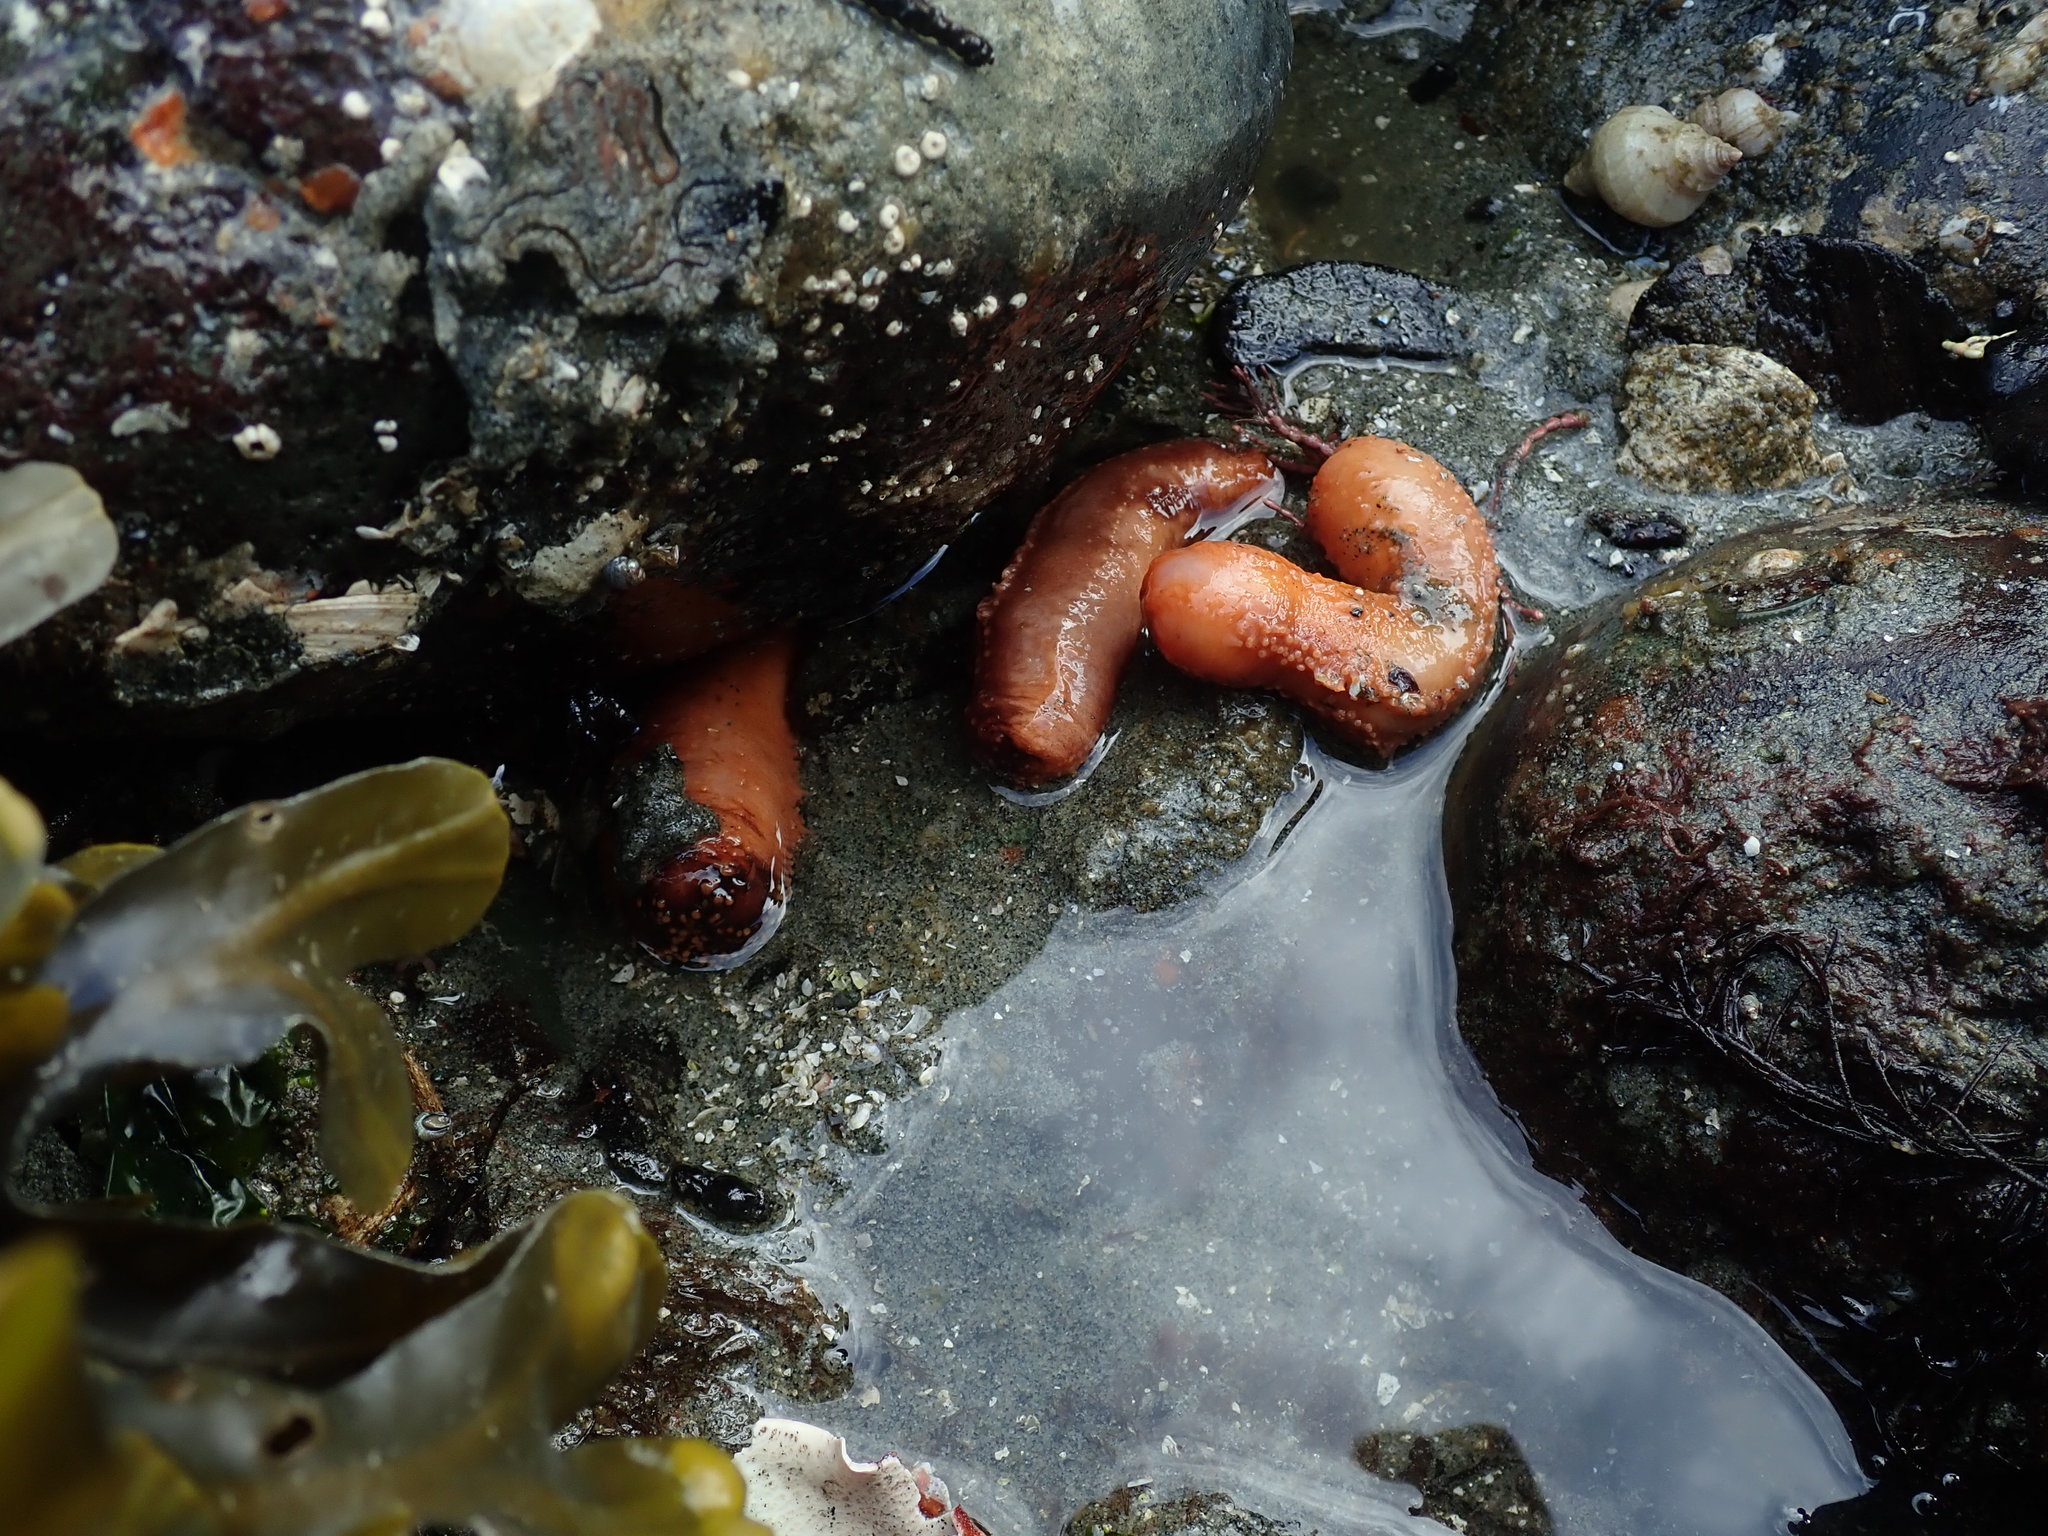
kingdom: Animalia
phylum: Echinodermata
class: Holothuroidea
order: Dendrochirotida
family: Cucumariidae
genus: Cucumaria
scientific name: Cucumaria miniata
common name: Orange sea cucumber
